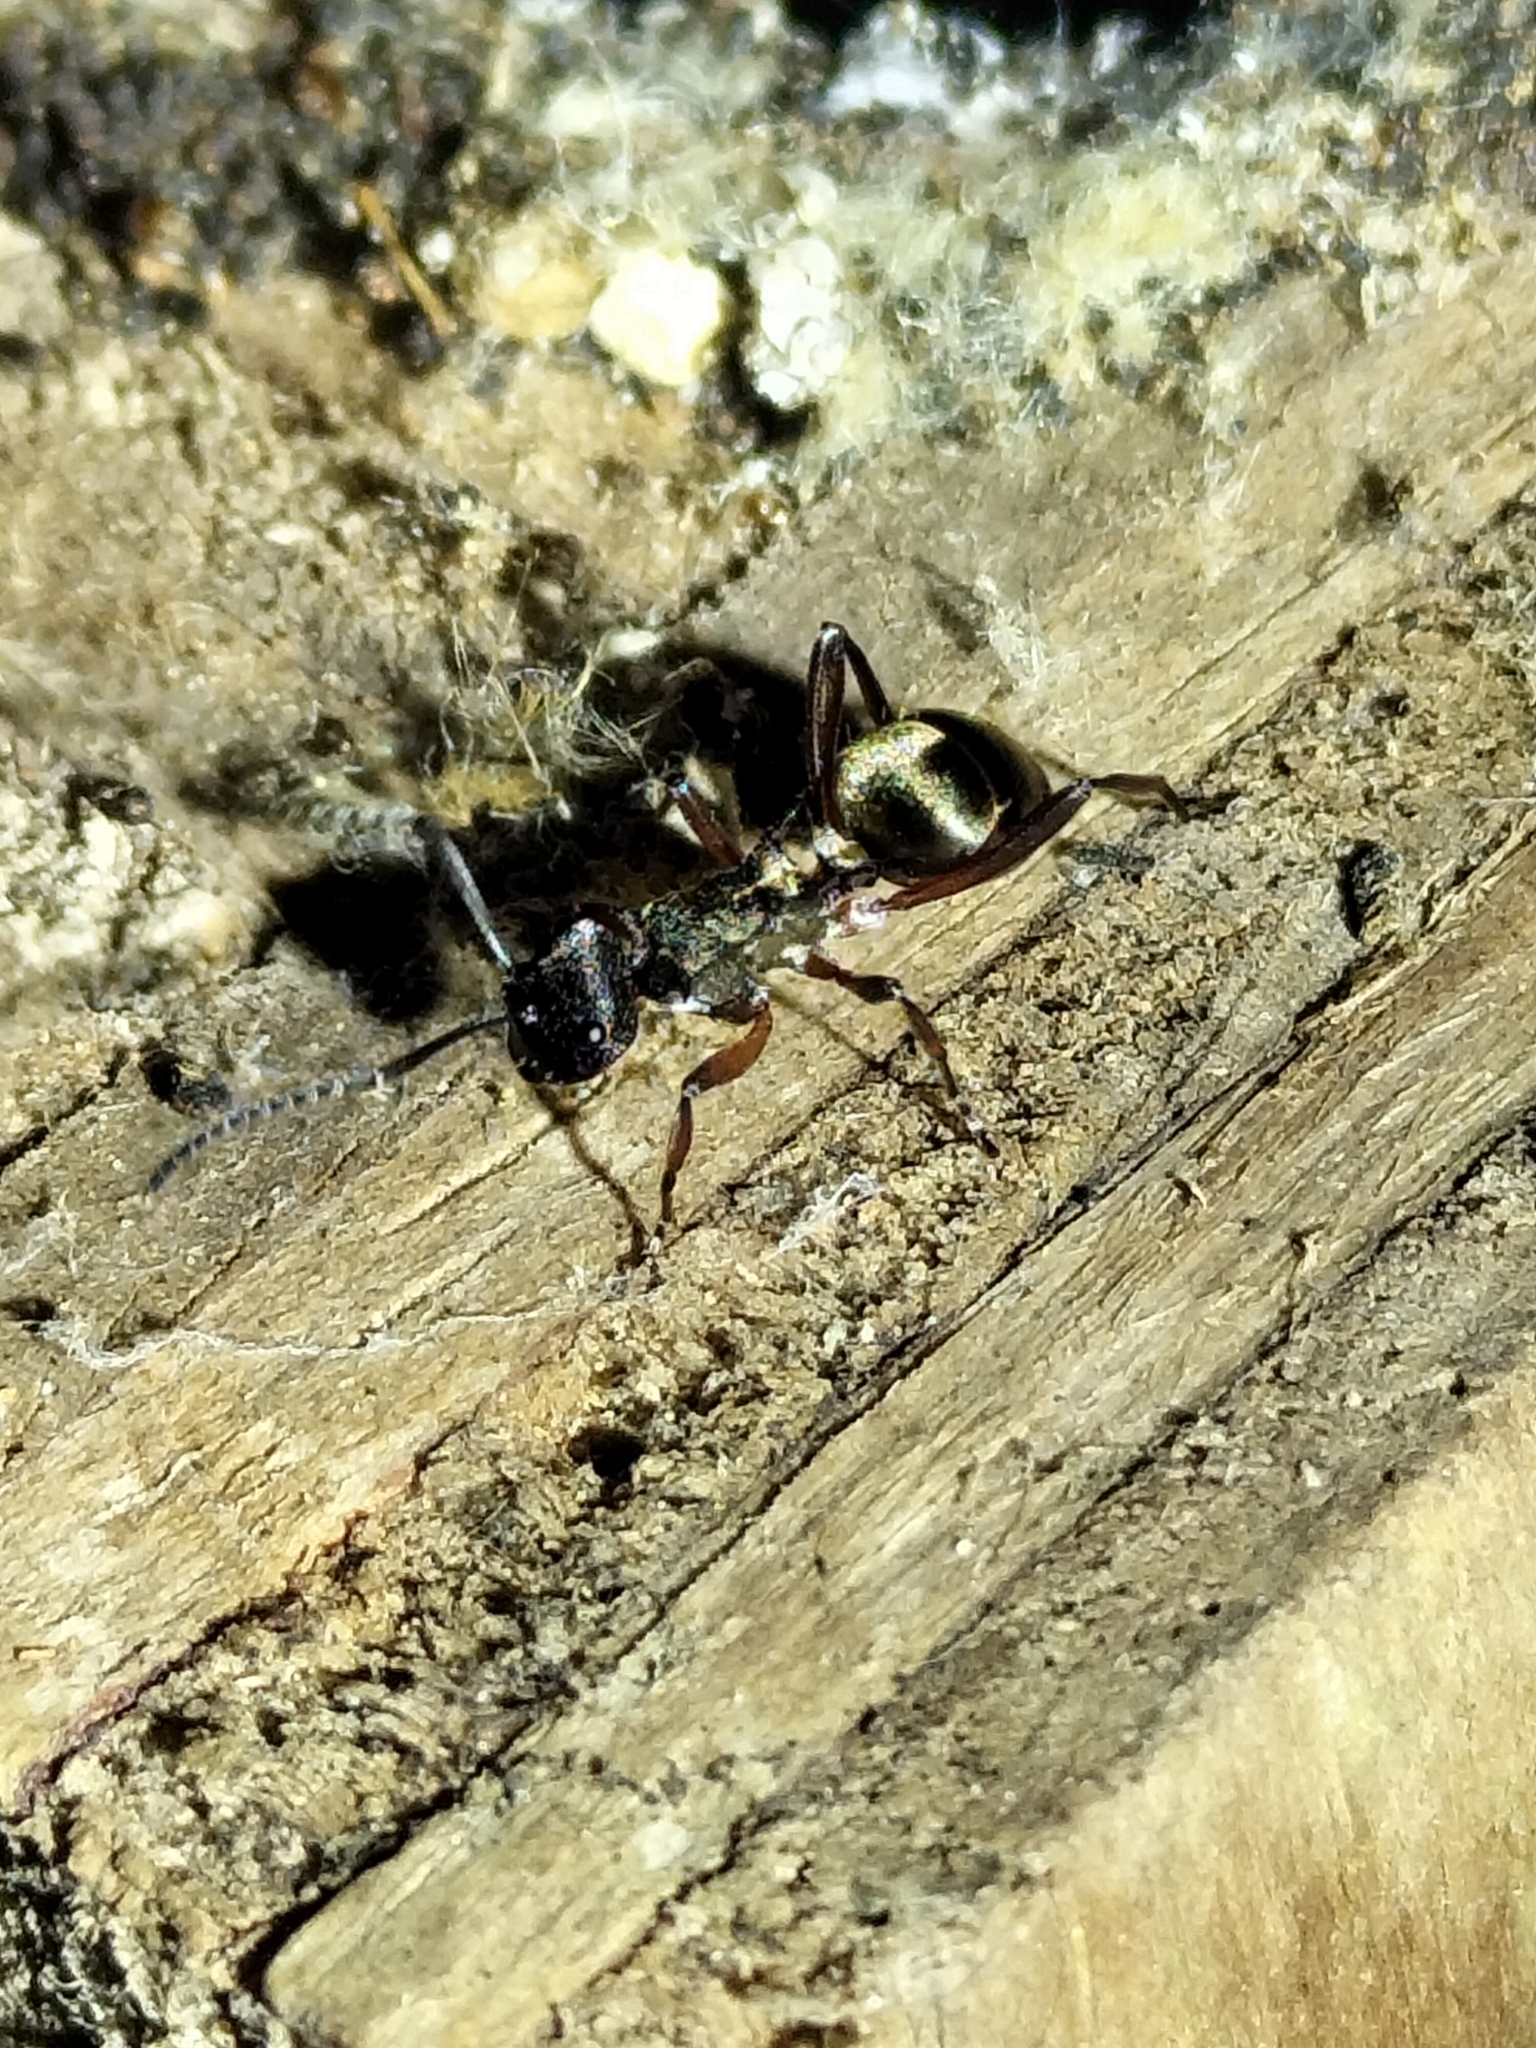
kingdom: Animalia
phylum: Arthropoda
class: Insecta
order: Hymenoptera
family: Formicidae
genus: Polyrhachis
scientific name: Polyrhachis rufifemur
